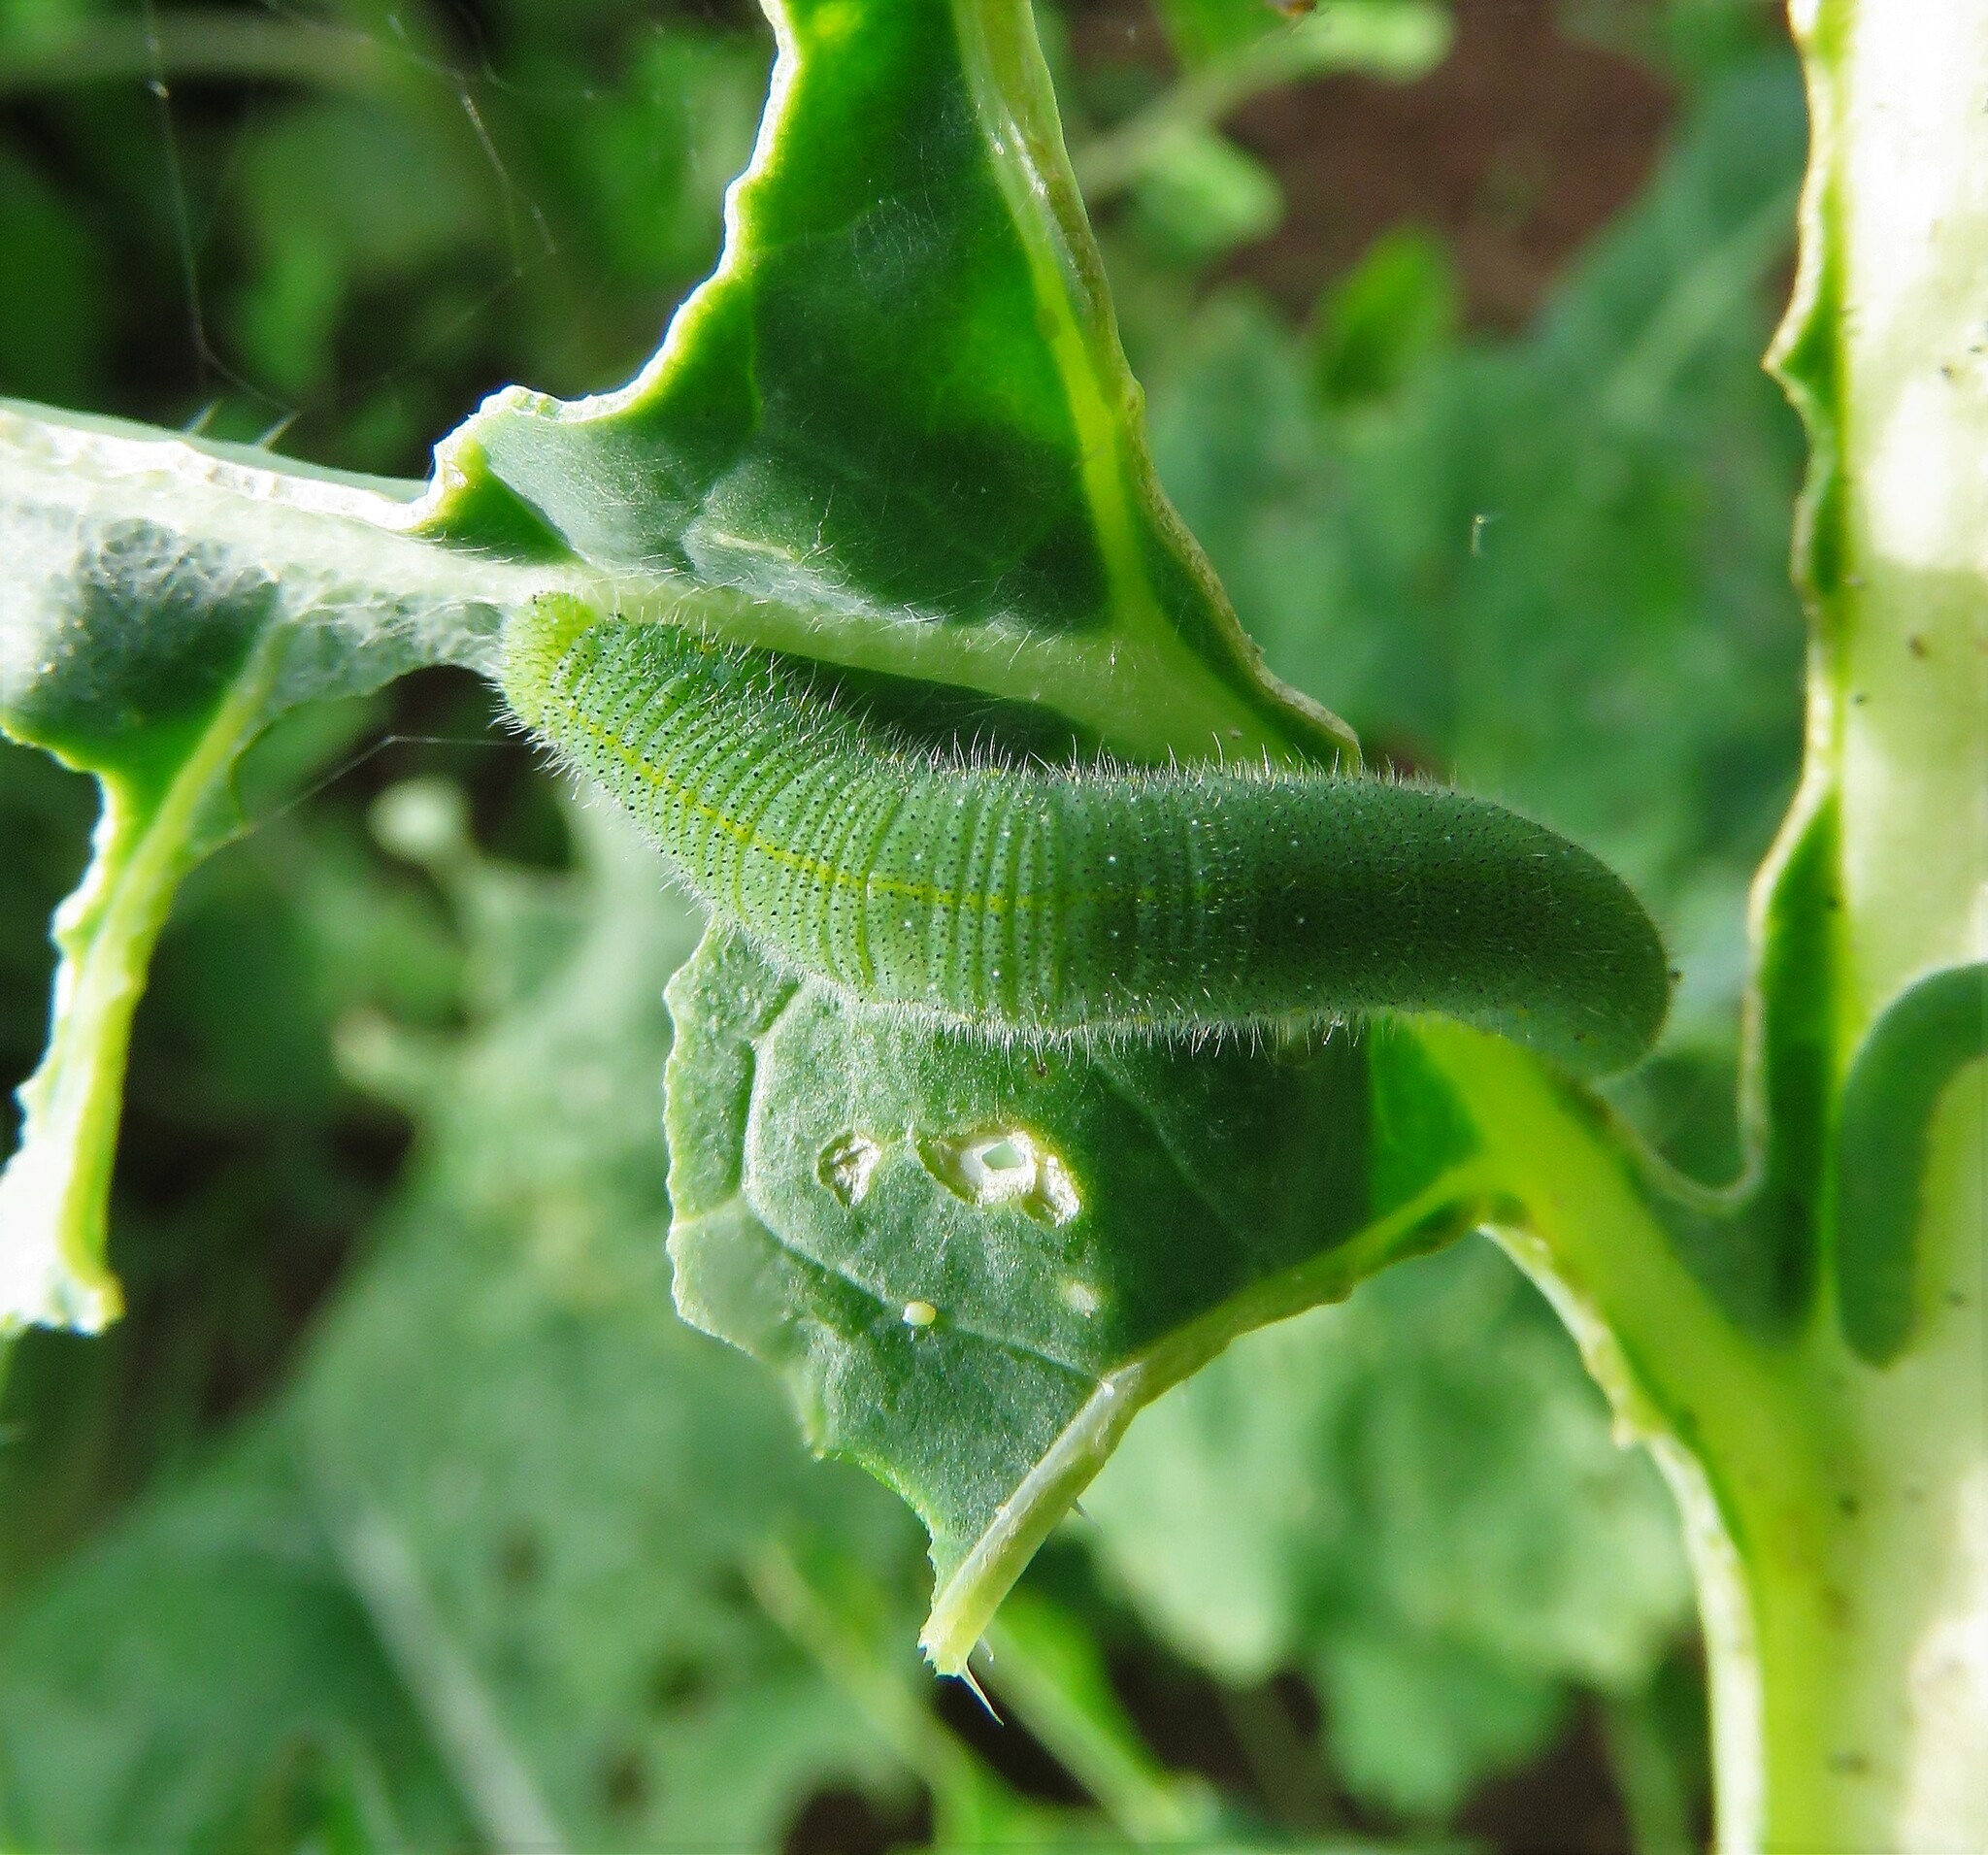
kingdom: Animalia
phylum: Arthropoda
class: Insecta
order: Lepidoptera
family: Pieridae
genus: Pieris
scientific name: Pieris rapae
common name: Small white
